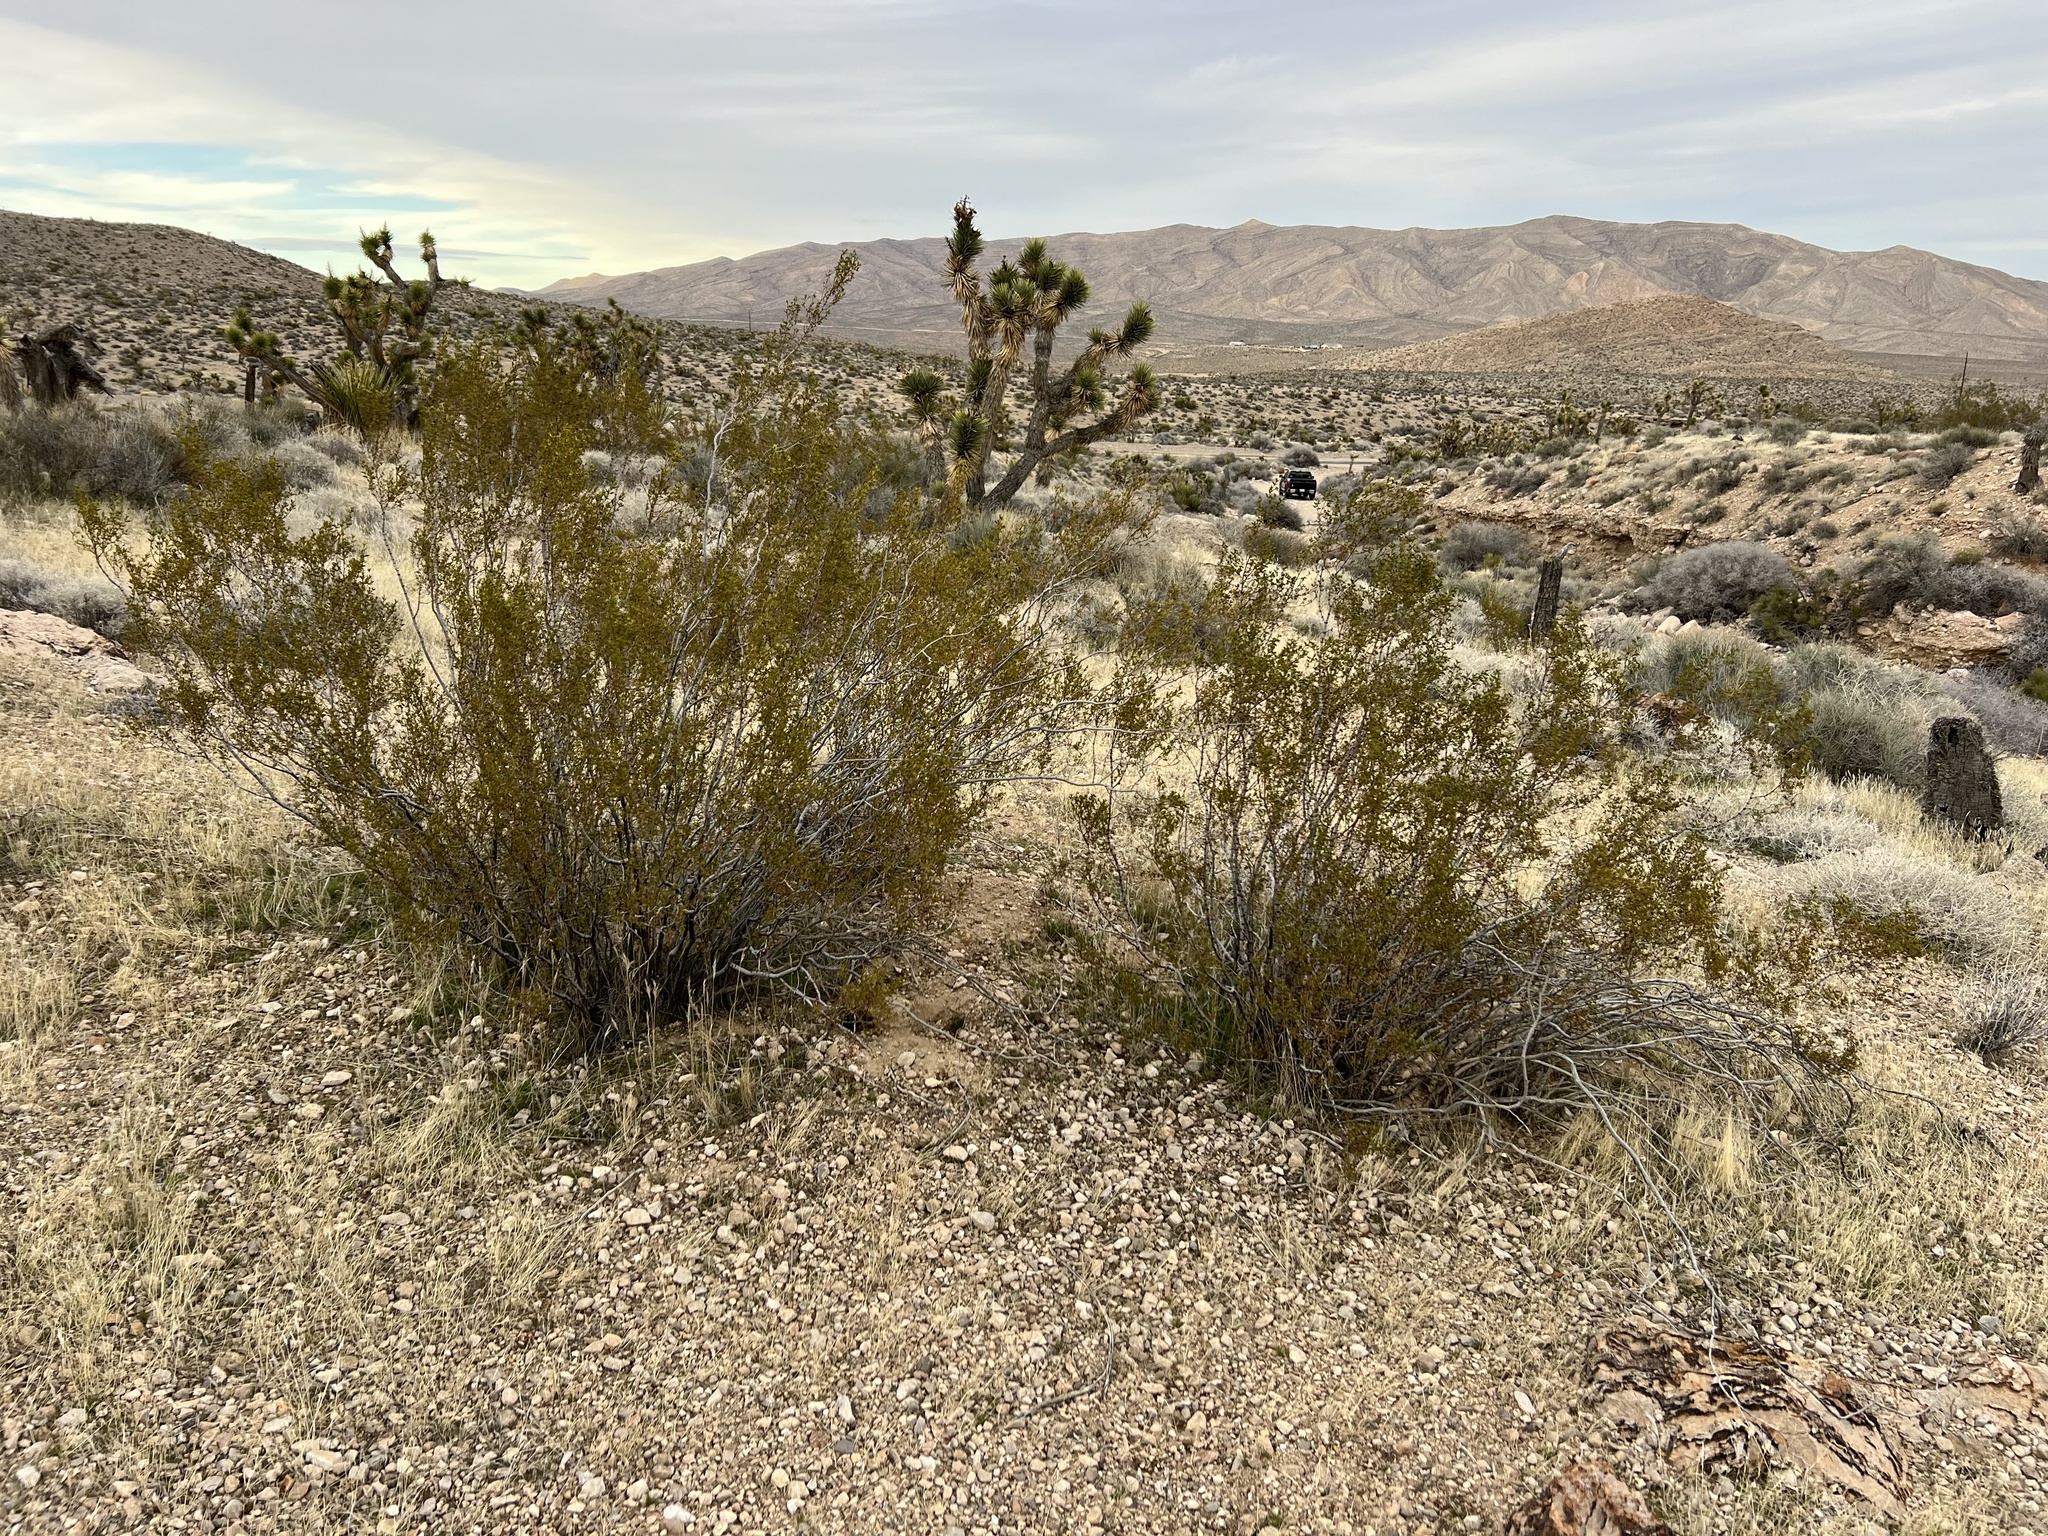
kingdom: Plantae
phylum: Tracheophyta
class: Magnoliopsida
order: Zygophyllales
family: Zygophyllaceae
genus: Larrea
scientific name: Larrea tridentata
